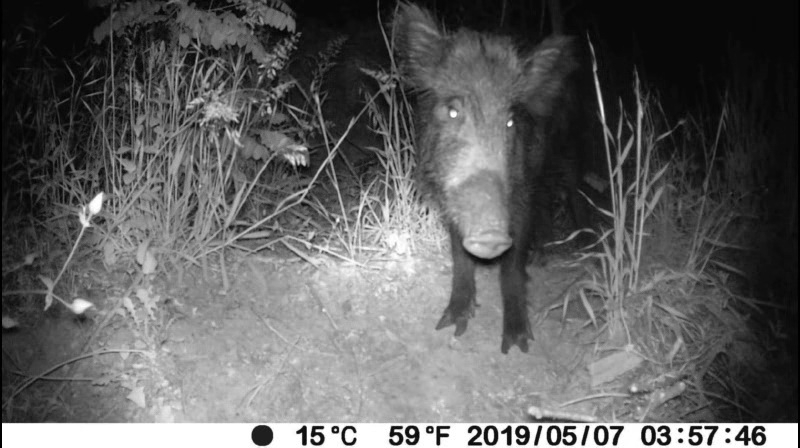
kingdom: Animalia
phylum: Chordata
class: Mammalia
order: Artiodactyla
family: Suidae
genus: Sus
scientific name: Sus scrofa
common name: Wild boar
